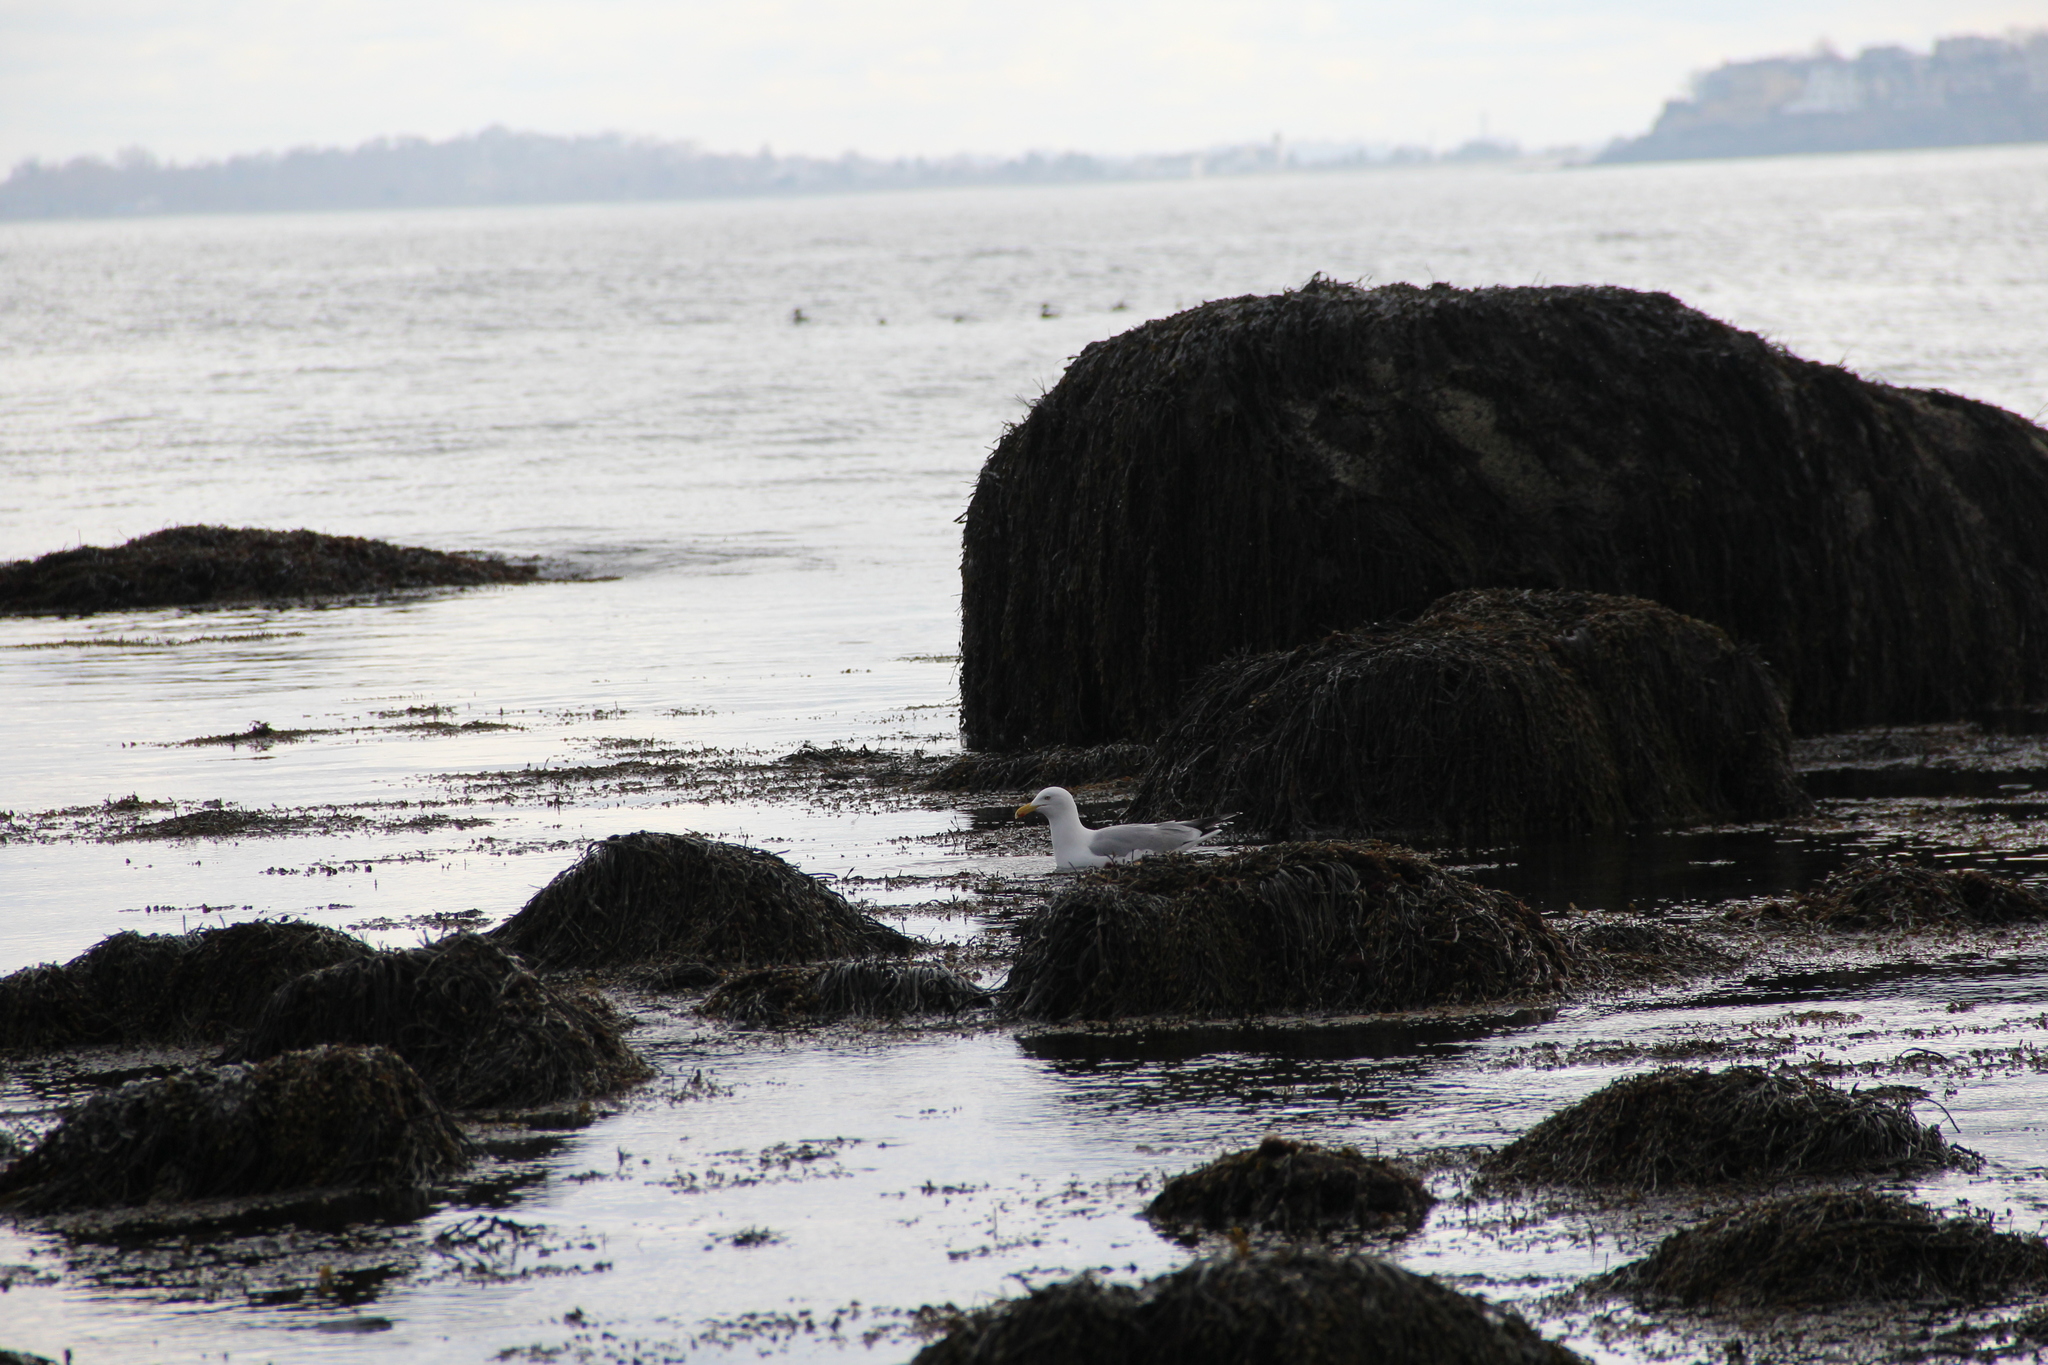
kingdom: Animalia
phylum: Chordata
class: Aves
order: Charadriiformes
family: Laridae
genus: Larus
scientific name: Larus argentatus
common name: Herring gull
